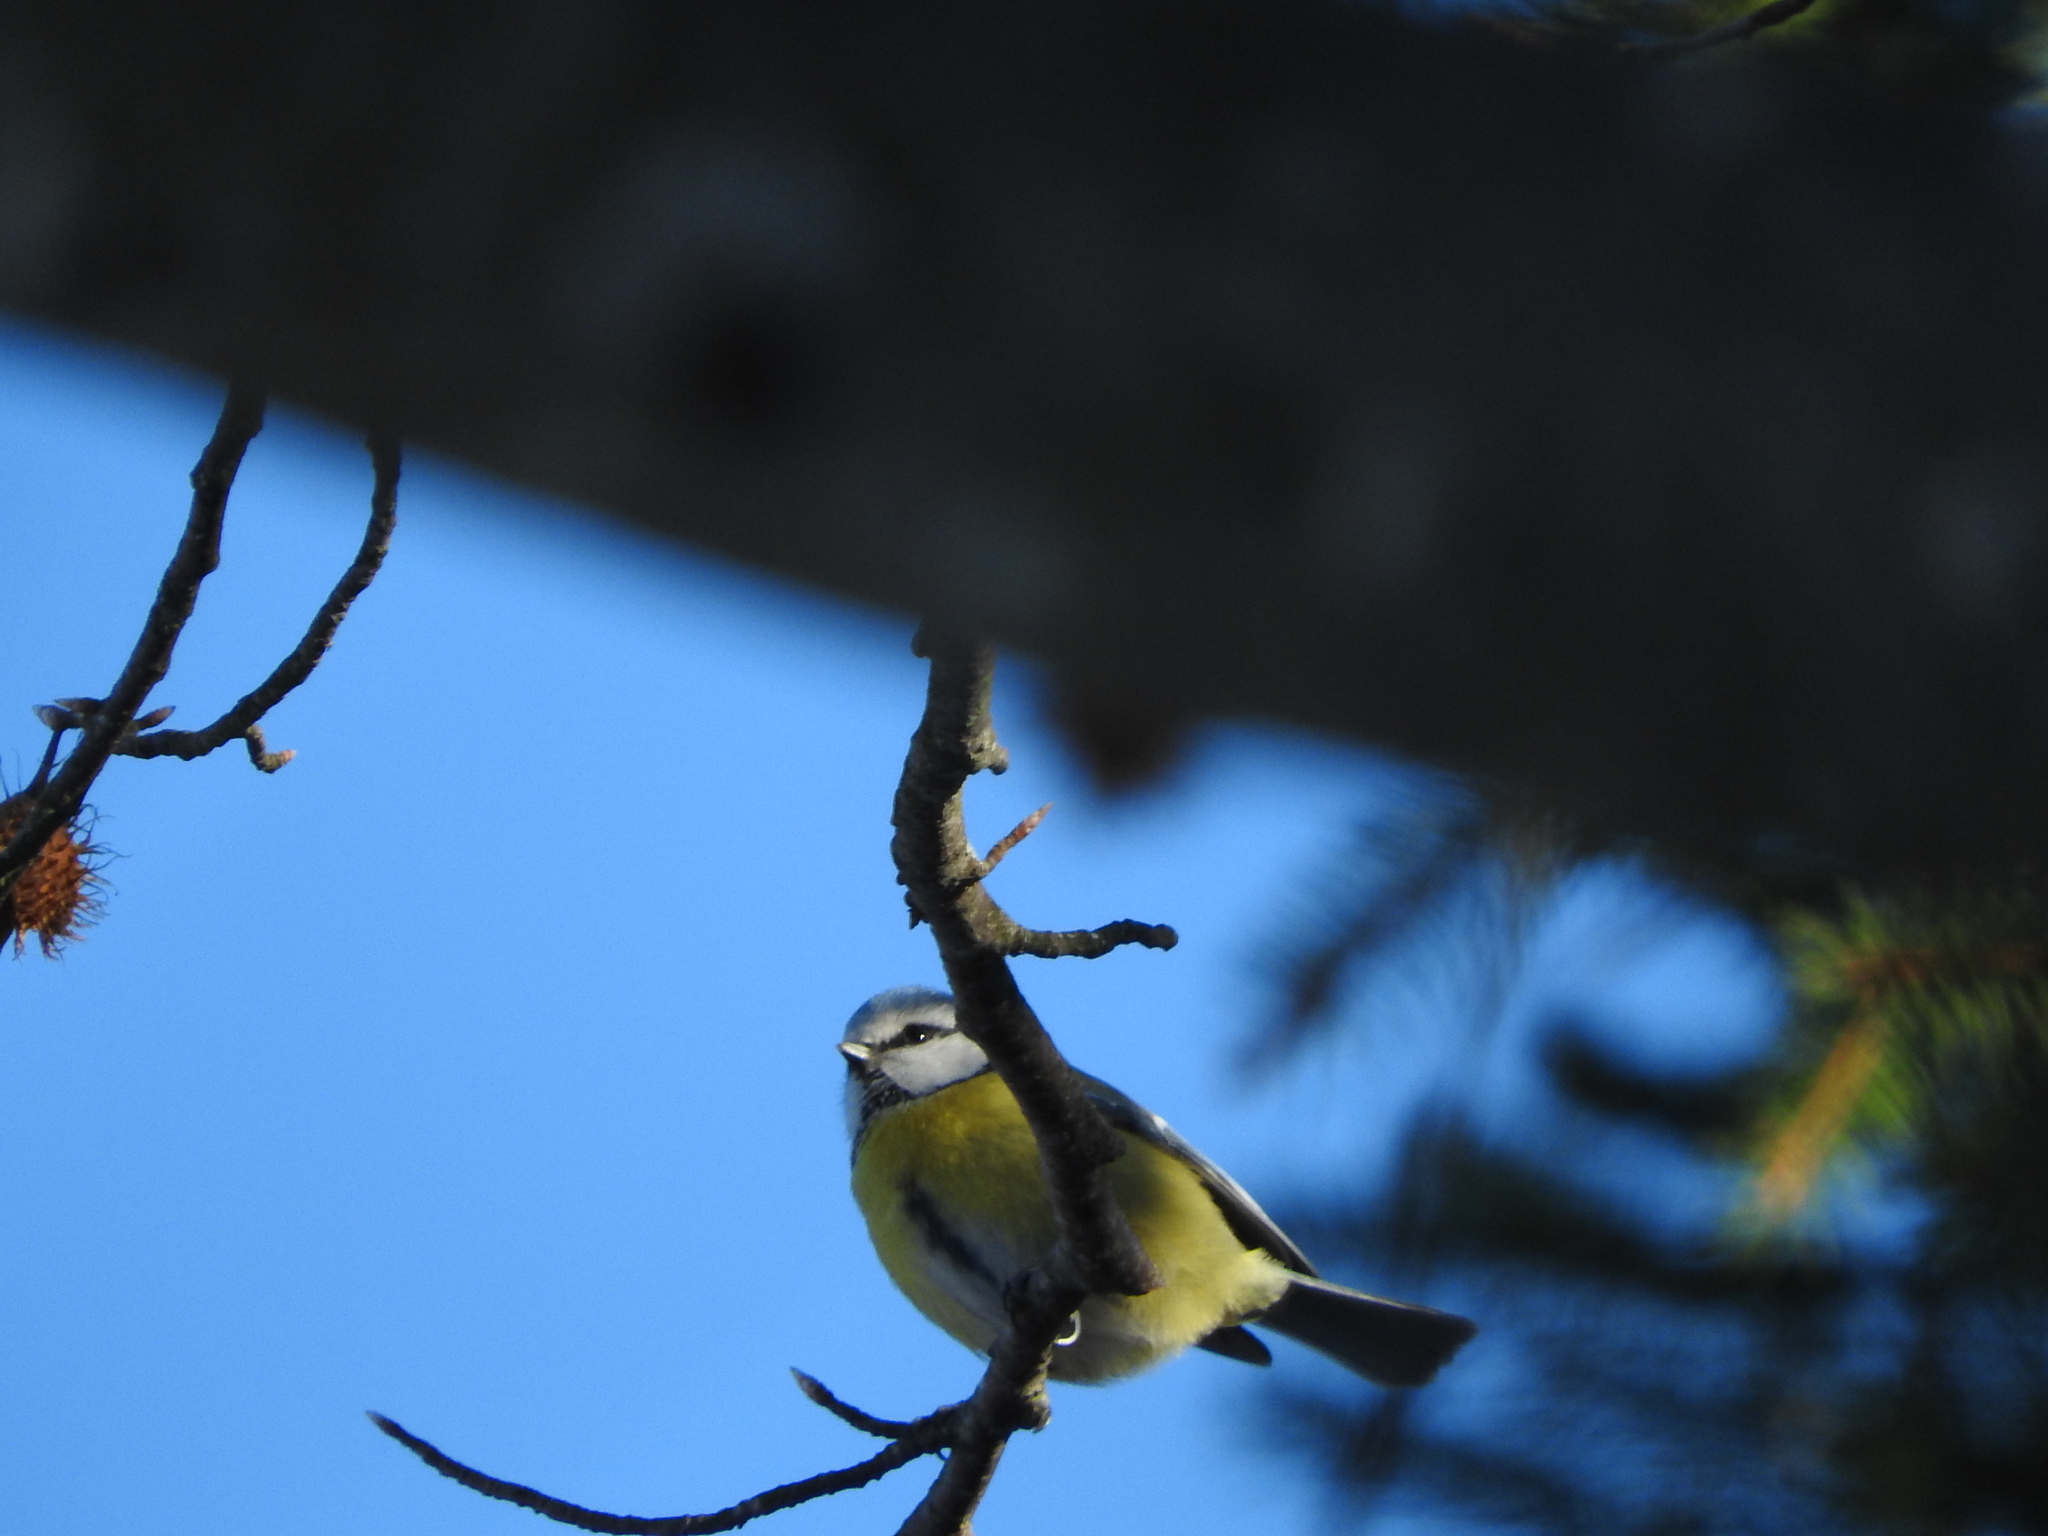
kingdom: Animalia
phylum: Chordata
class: Aves
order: Passeriformes
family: Paridae
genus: Cyanistes
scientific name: Cyanistes caeruleus
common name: Eurasian blue tit
